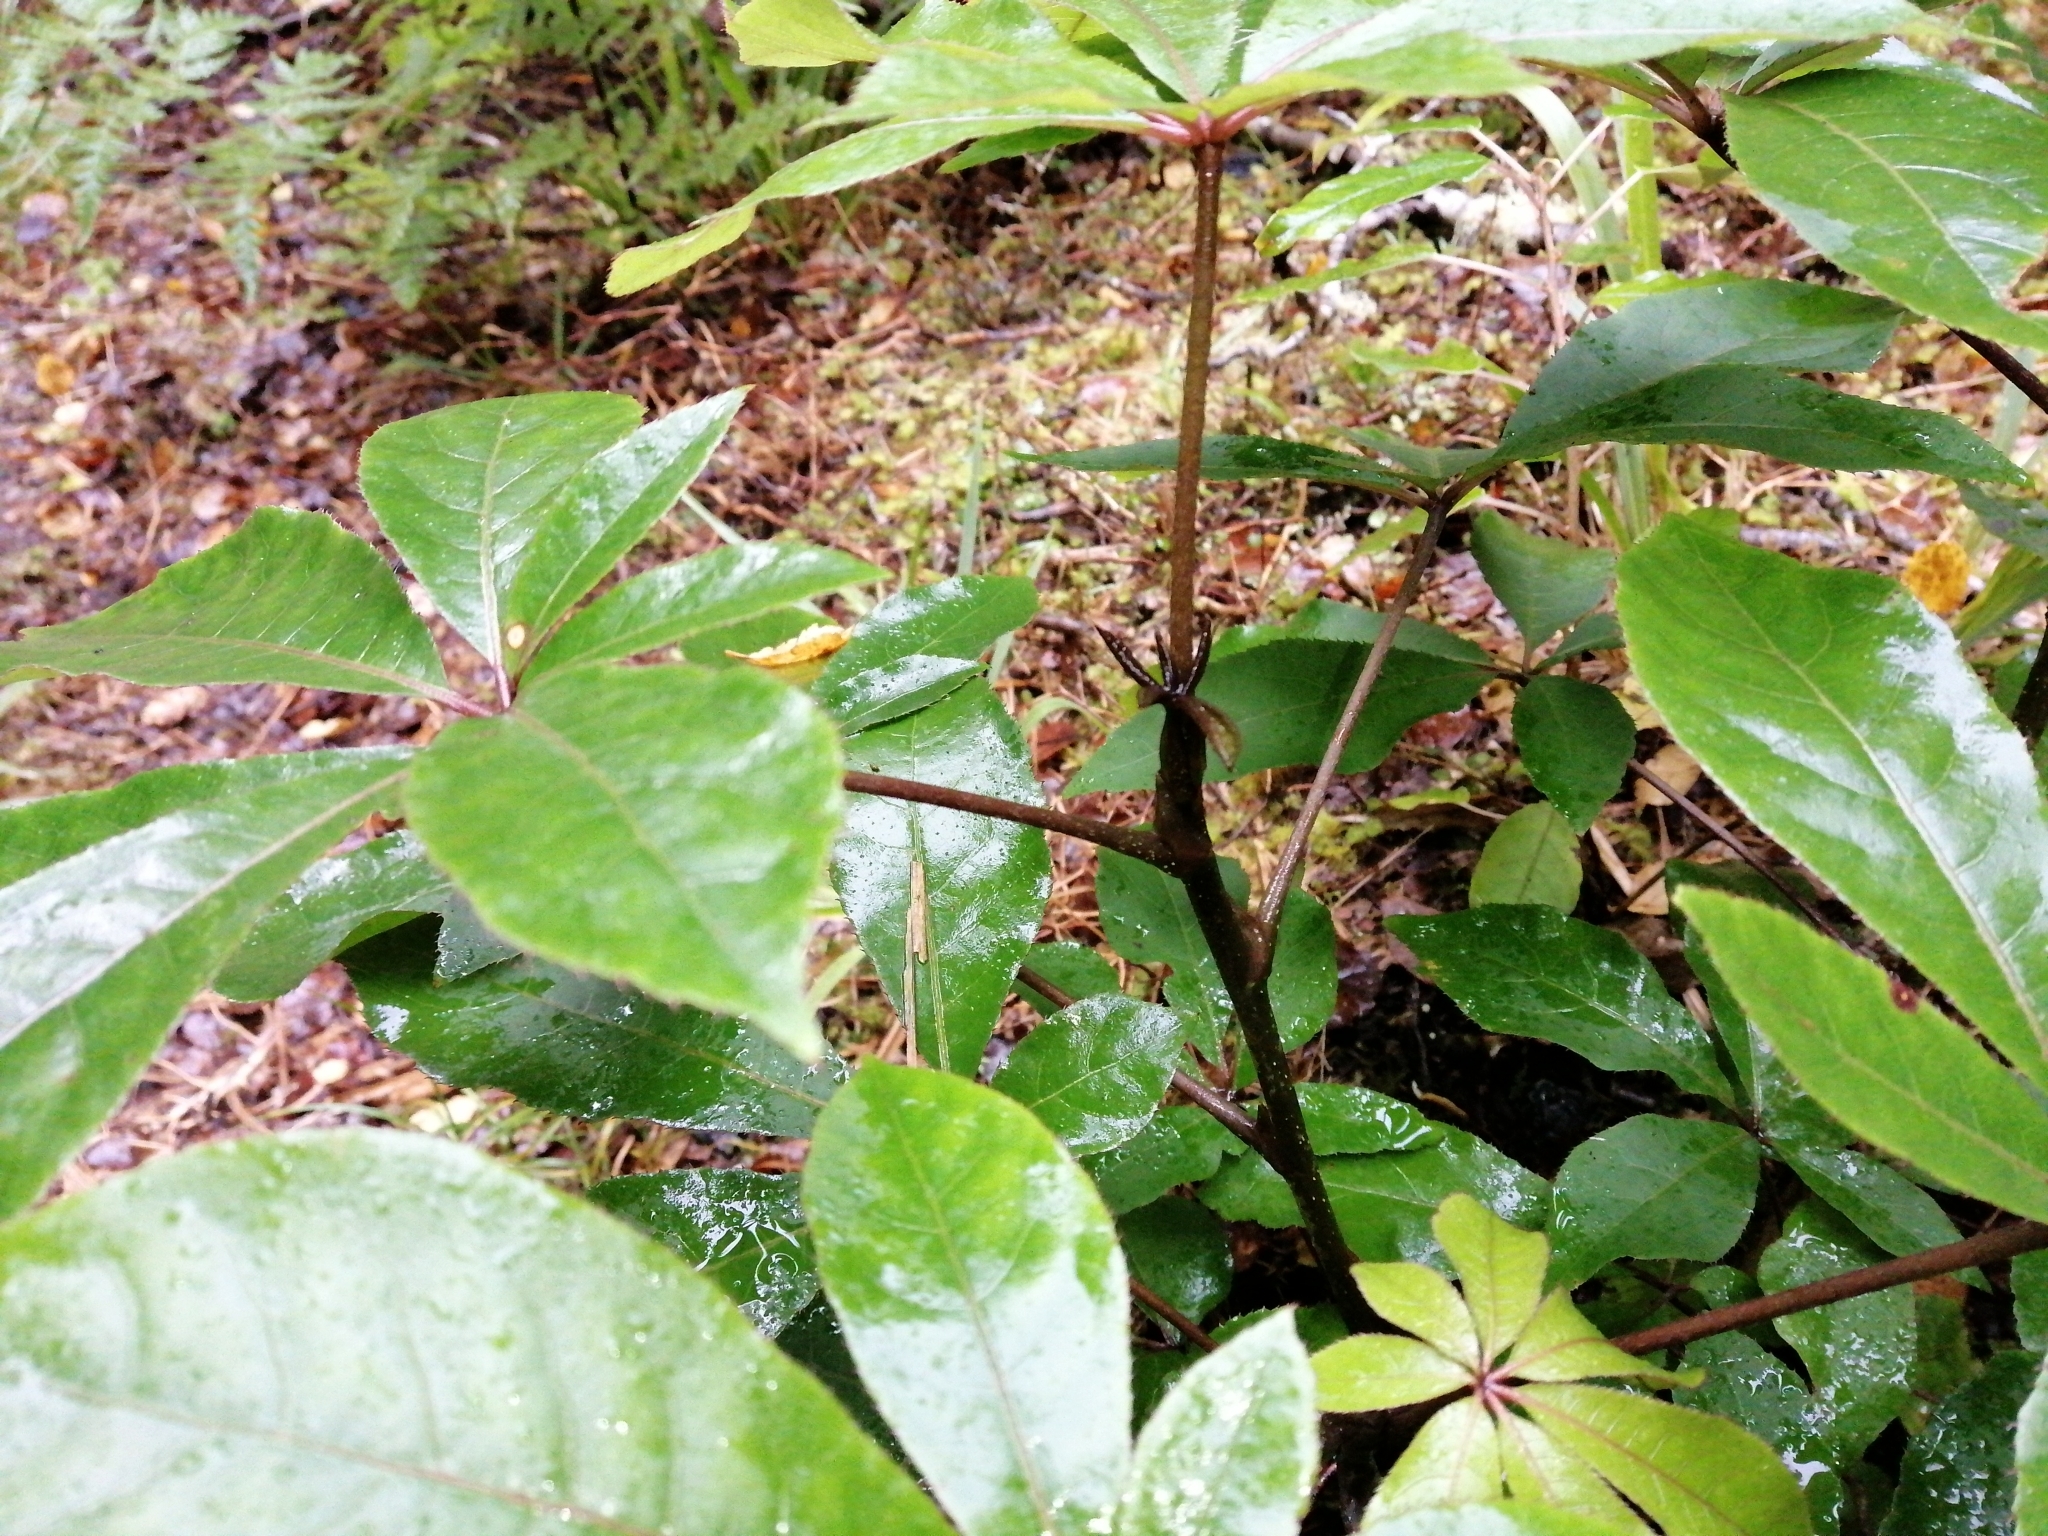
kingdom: Plantae
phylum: Tracheophyta
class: Magnoliopsida
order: Apiales
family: Araliaceae
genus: Schefflera
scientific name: Schefflera digitata
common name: Pate
